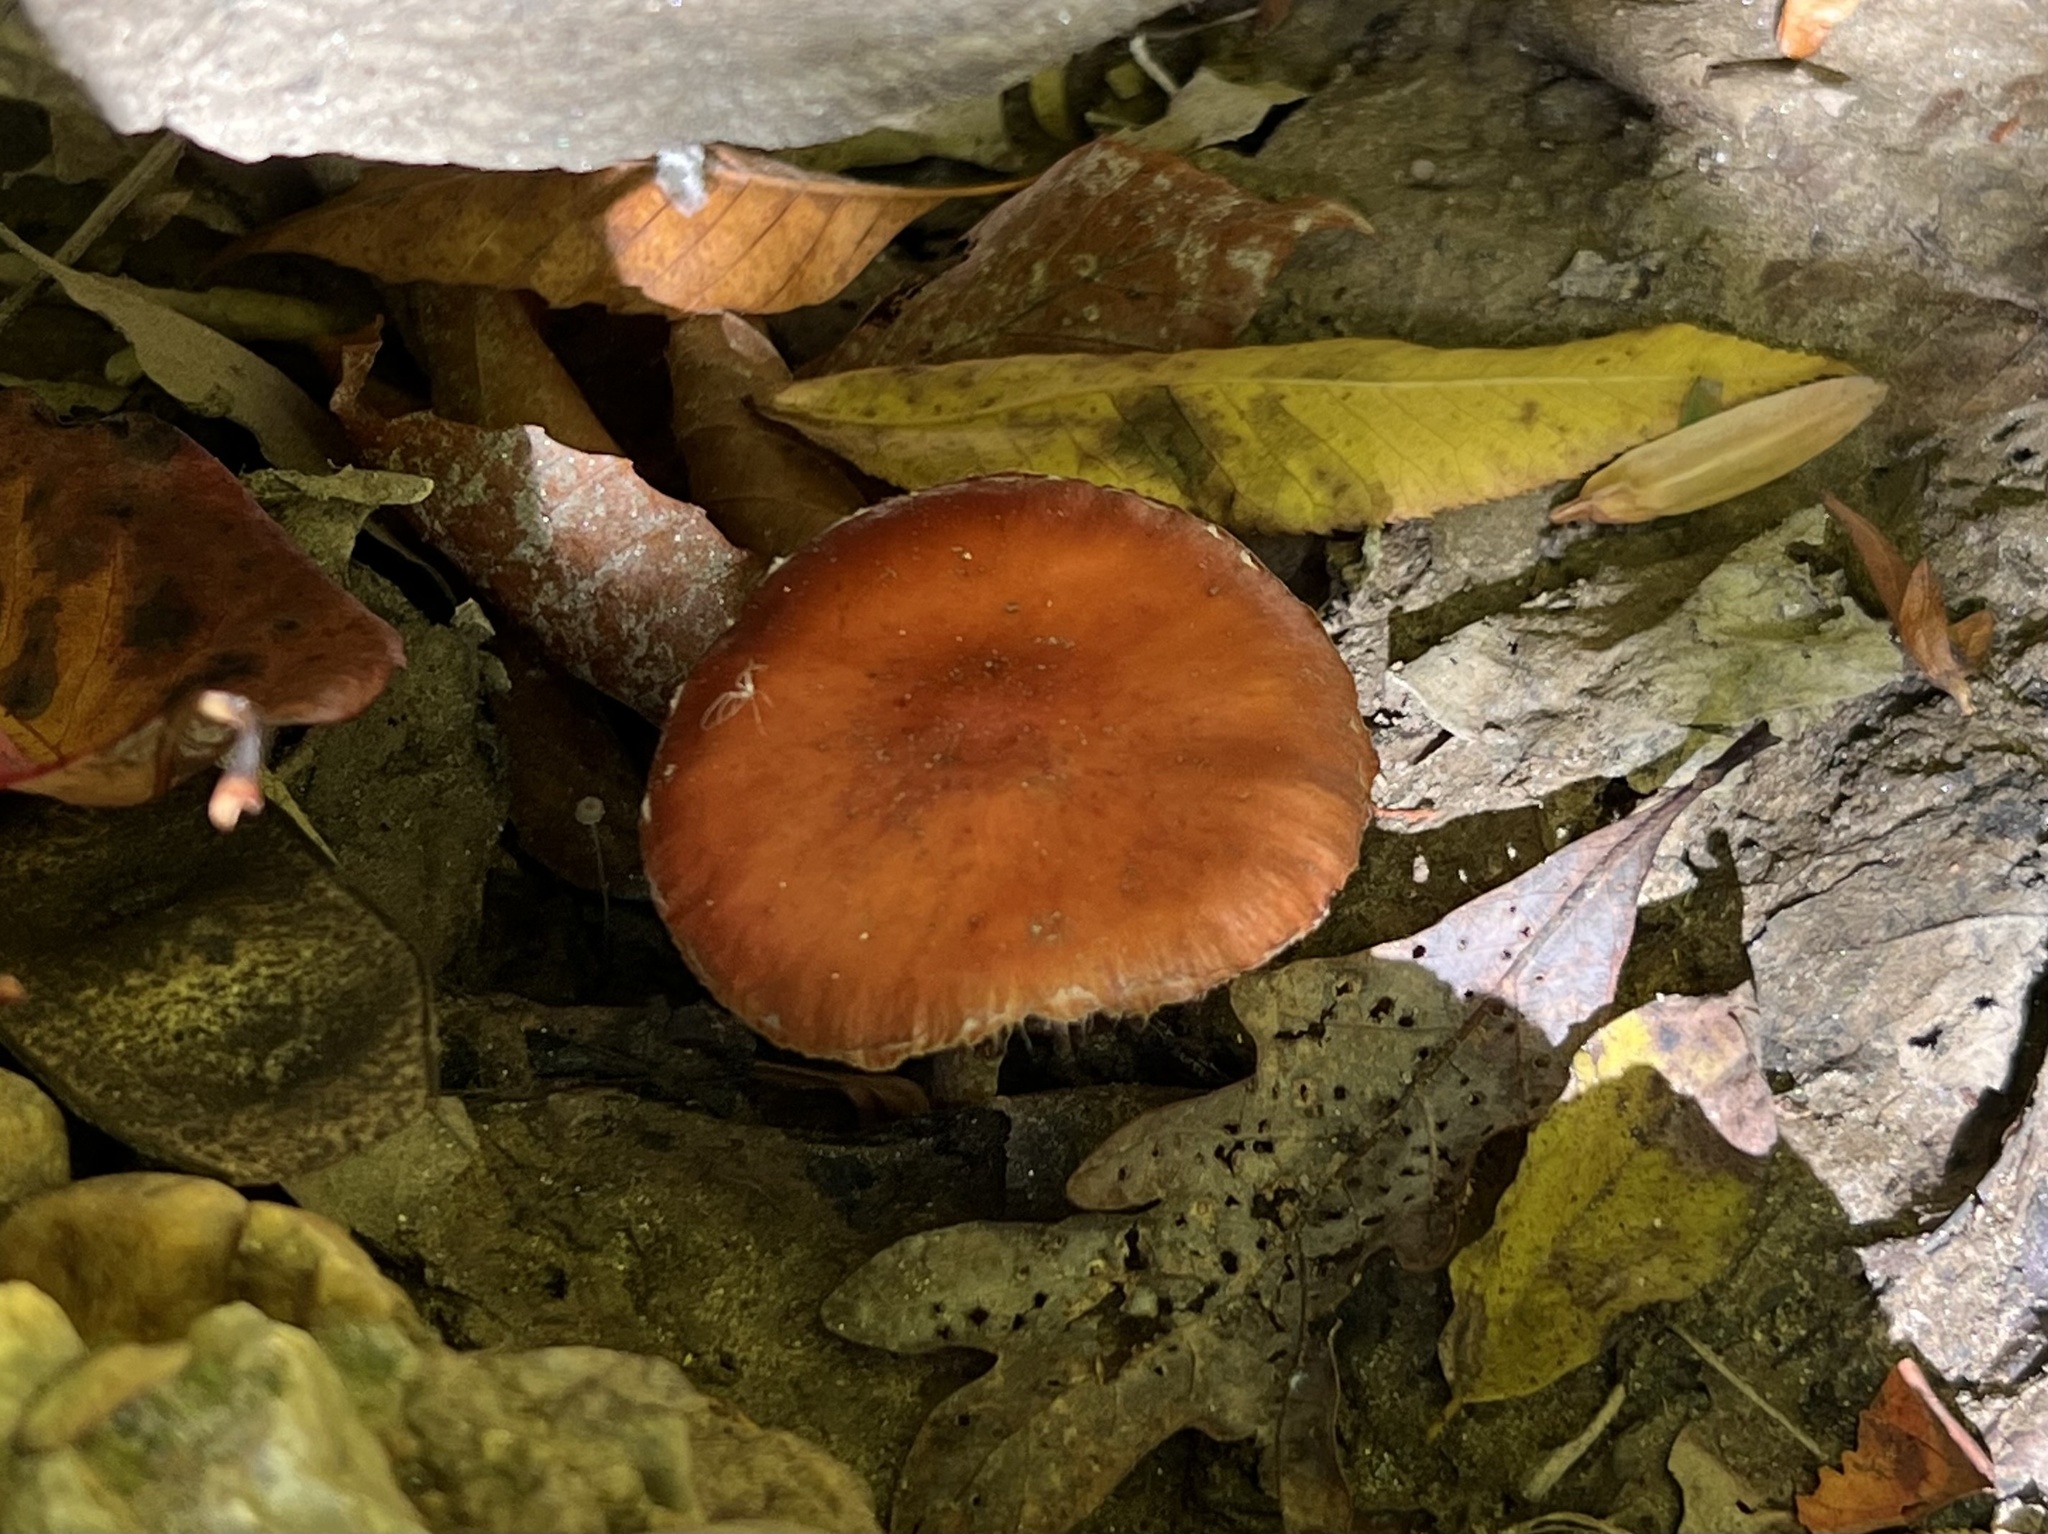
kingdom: Fungi
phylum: Basidiomycota
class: Agaricomycetes
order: Agaricales
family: Strophariaceae
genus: Leratiomyces
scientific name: Leratiomyces ceres
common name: Redlead roundhead
